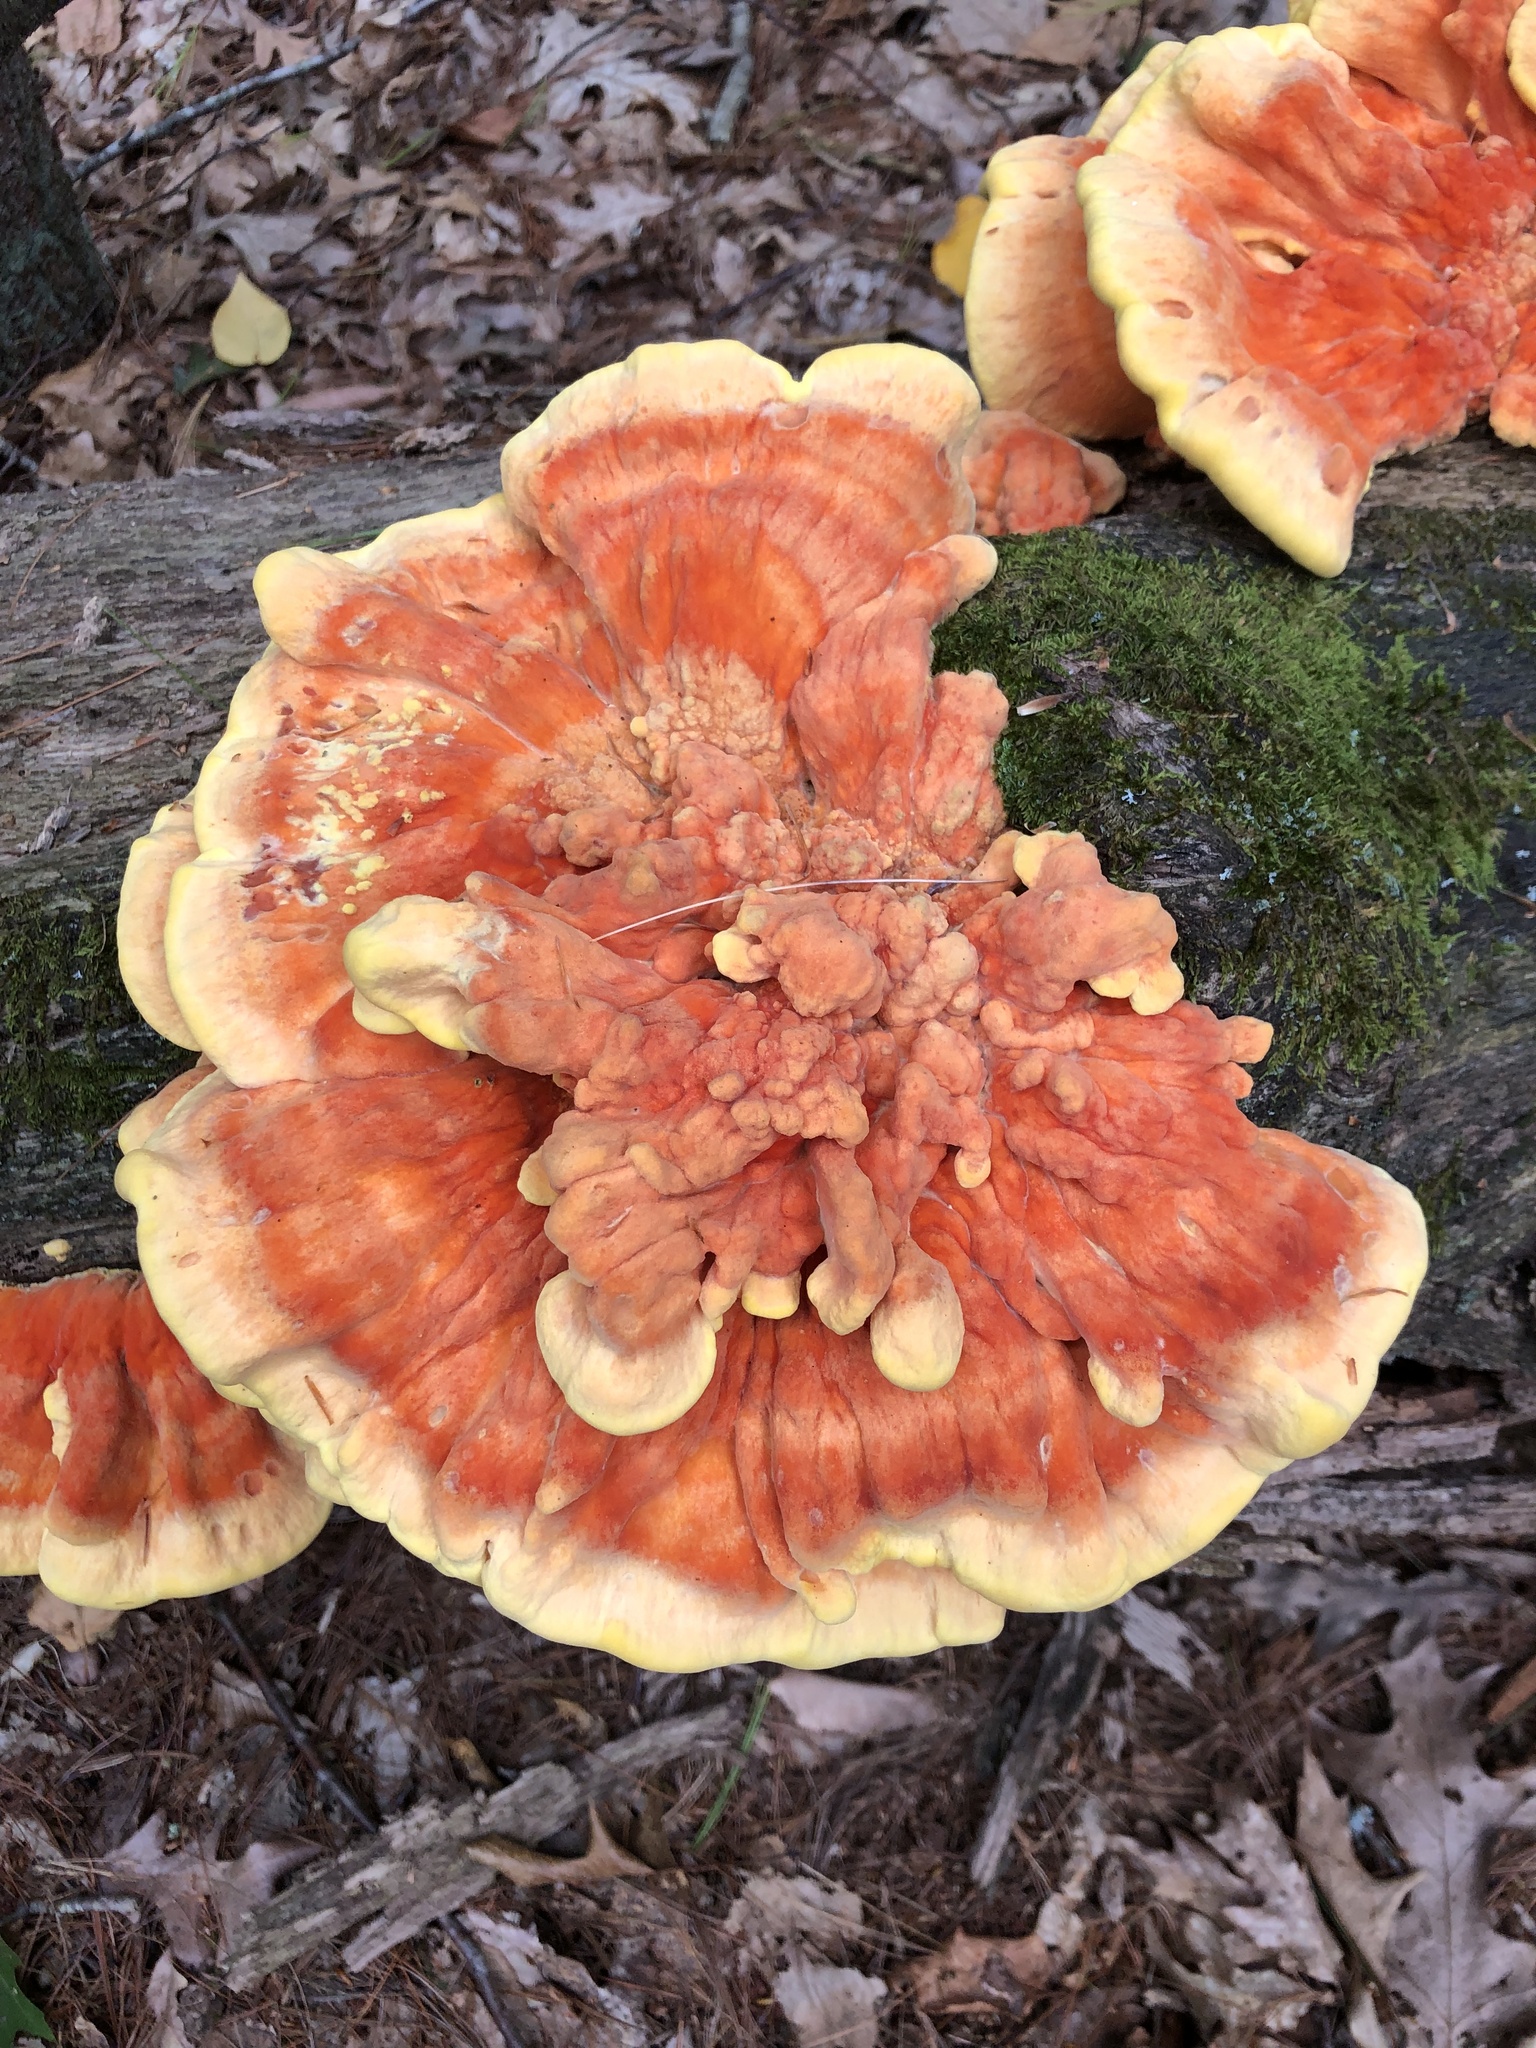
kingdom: Fungi
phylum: Basidiomycota
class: Agaricomycetes
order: Polyporales
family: Laetiporaceae
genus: Laetiporus
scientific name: Laetiporus sulphureus
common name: Chicken of the woods
